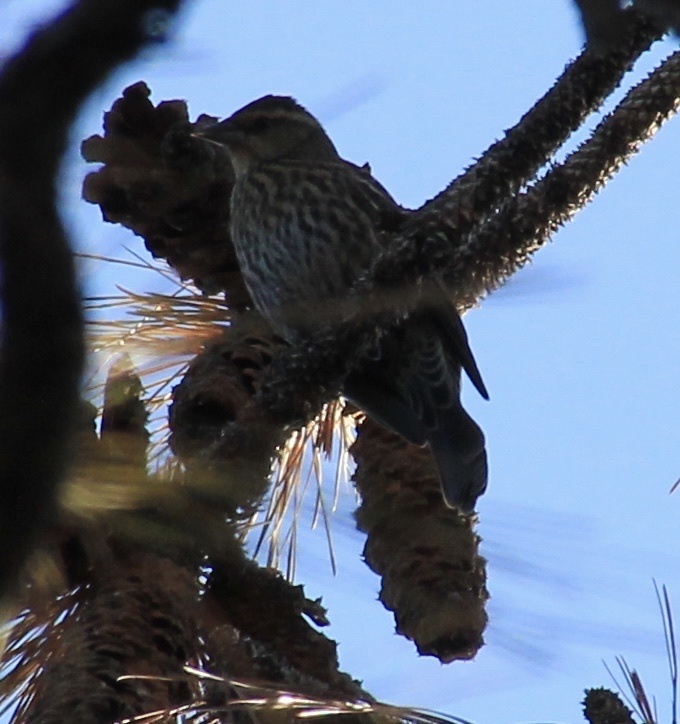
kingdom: Animalia
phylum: Chordata
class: Aves
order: Passeriformes
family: Icteridae
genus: Agelaius
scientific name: Agelaius phoeniceus
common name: Red-winged blackbird
